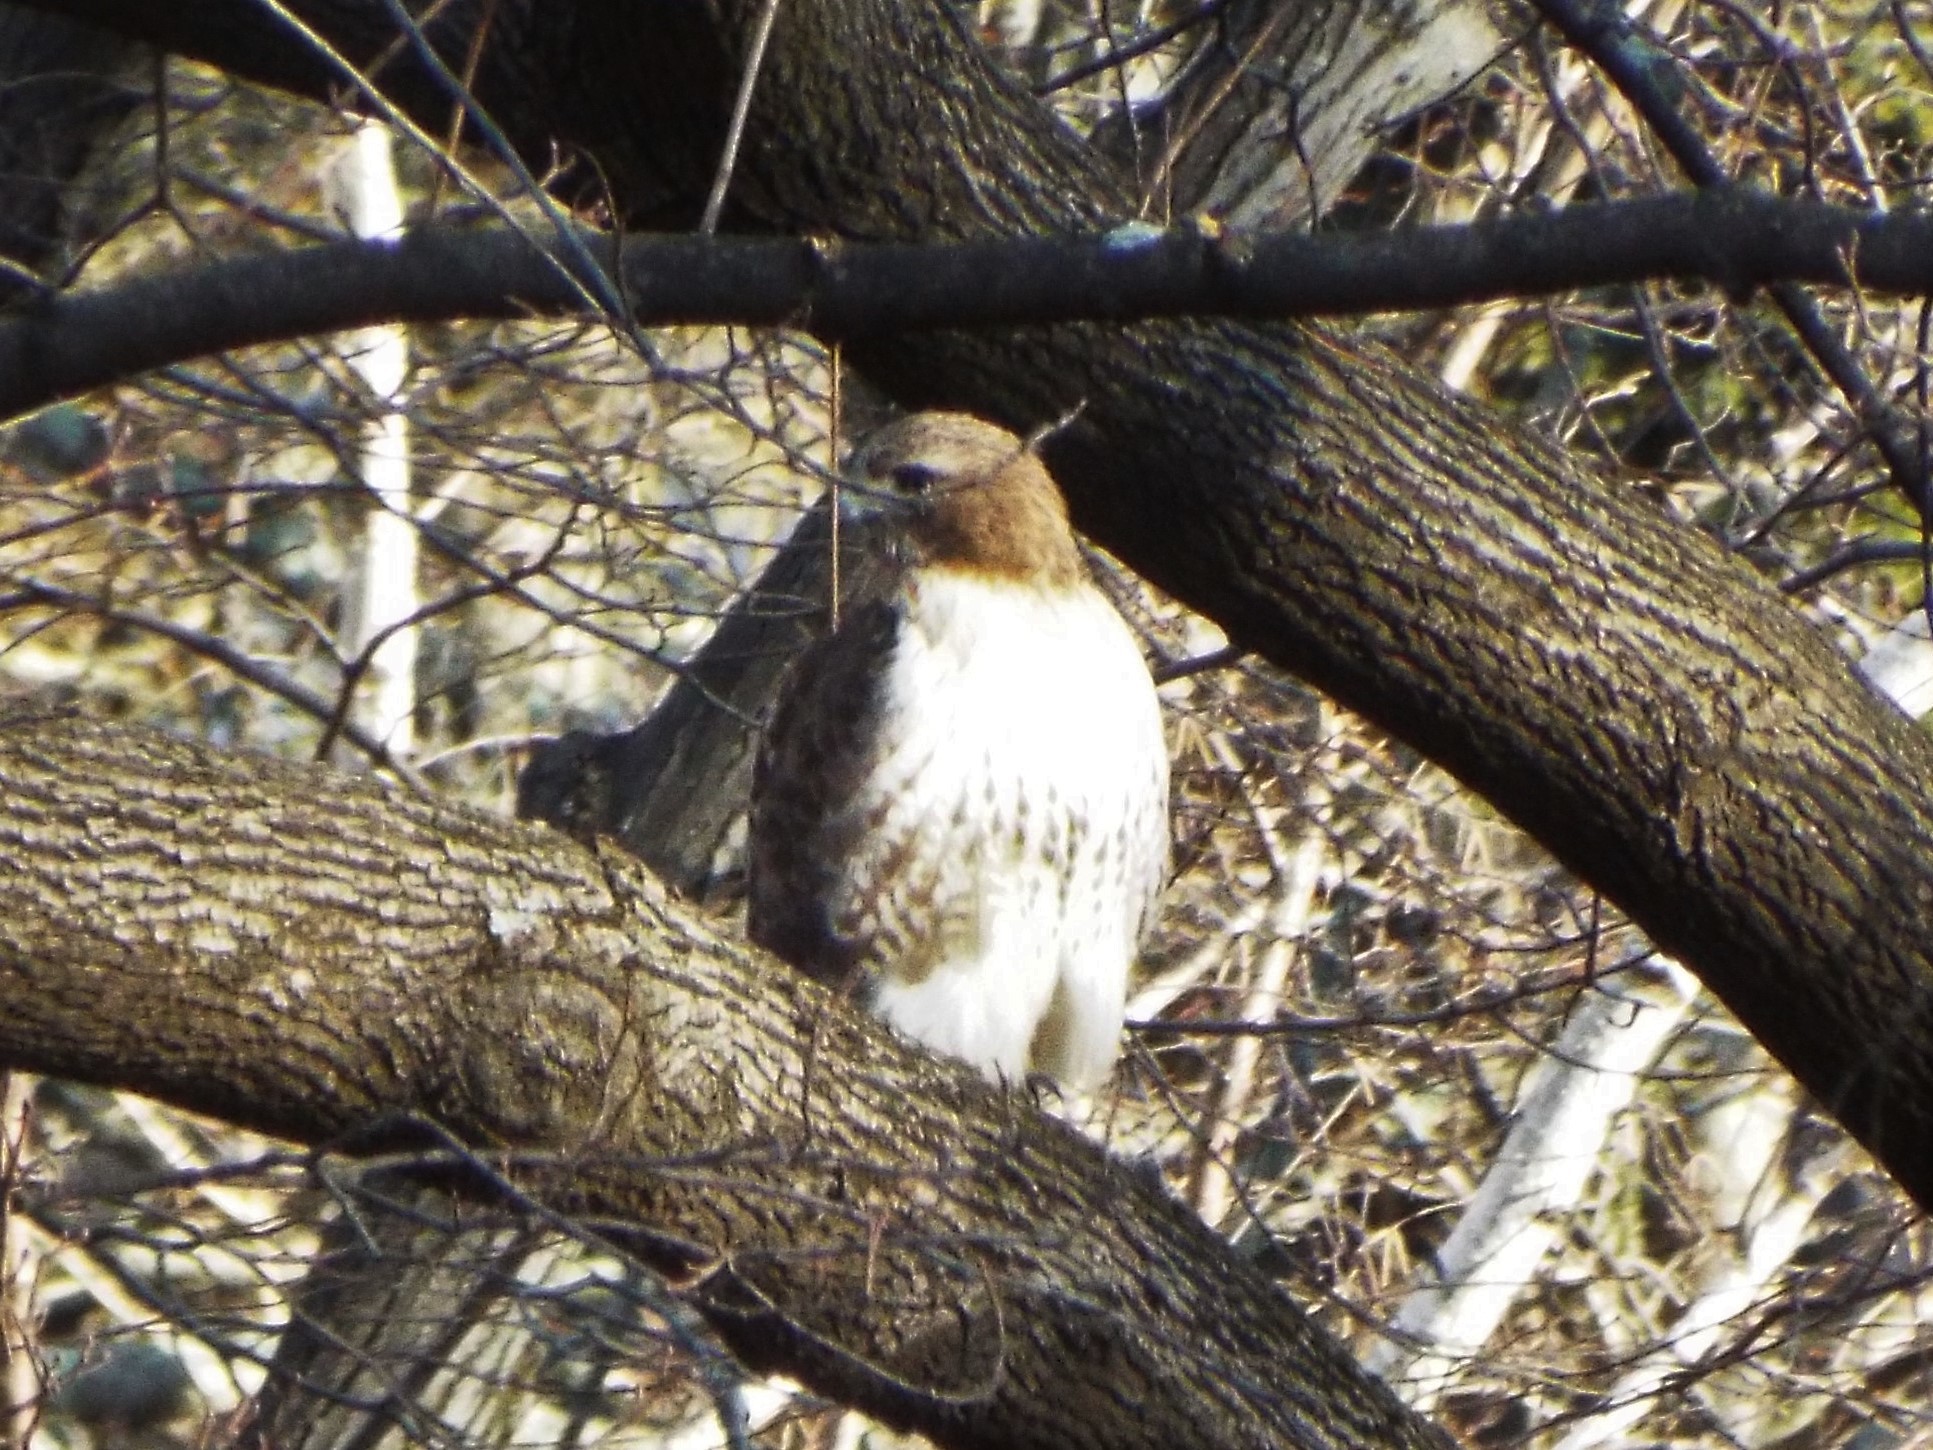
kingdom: Animalia
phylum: Chordata
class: Aves
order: Accipitriformes
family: Accipitridae
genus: Buteo
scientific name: Buteo jamaicensis
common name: Red-tailed hawk
